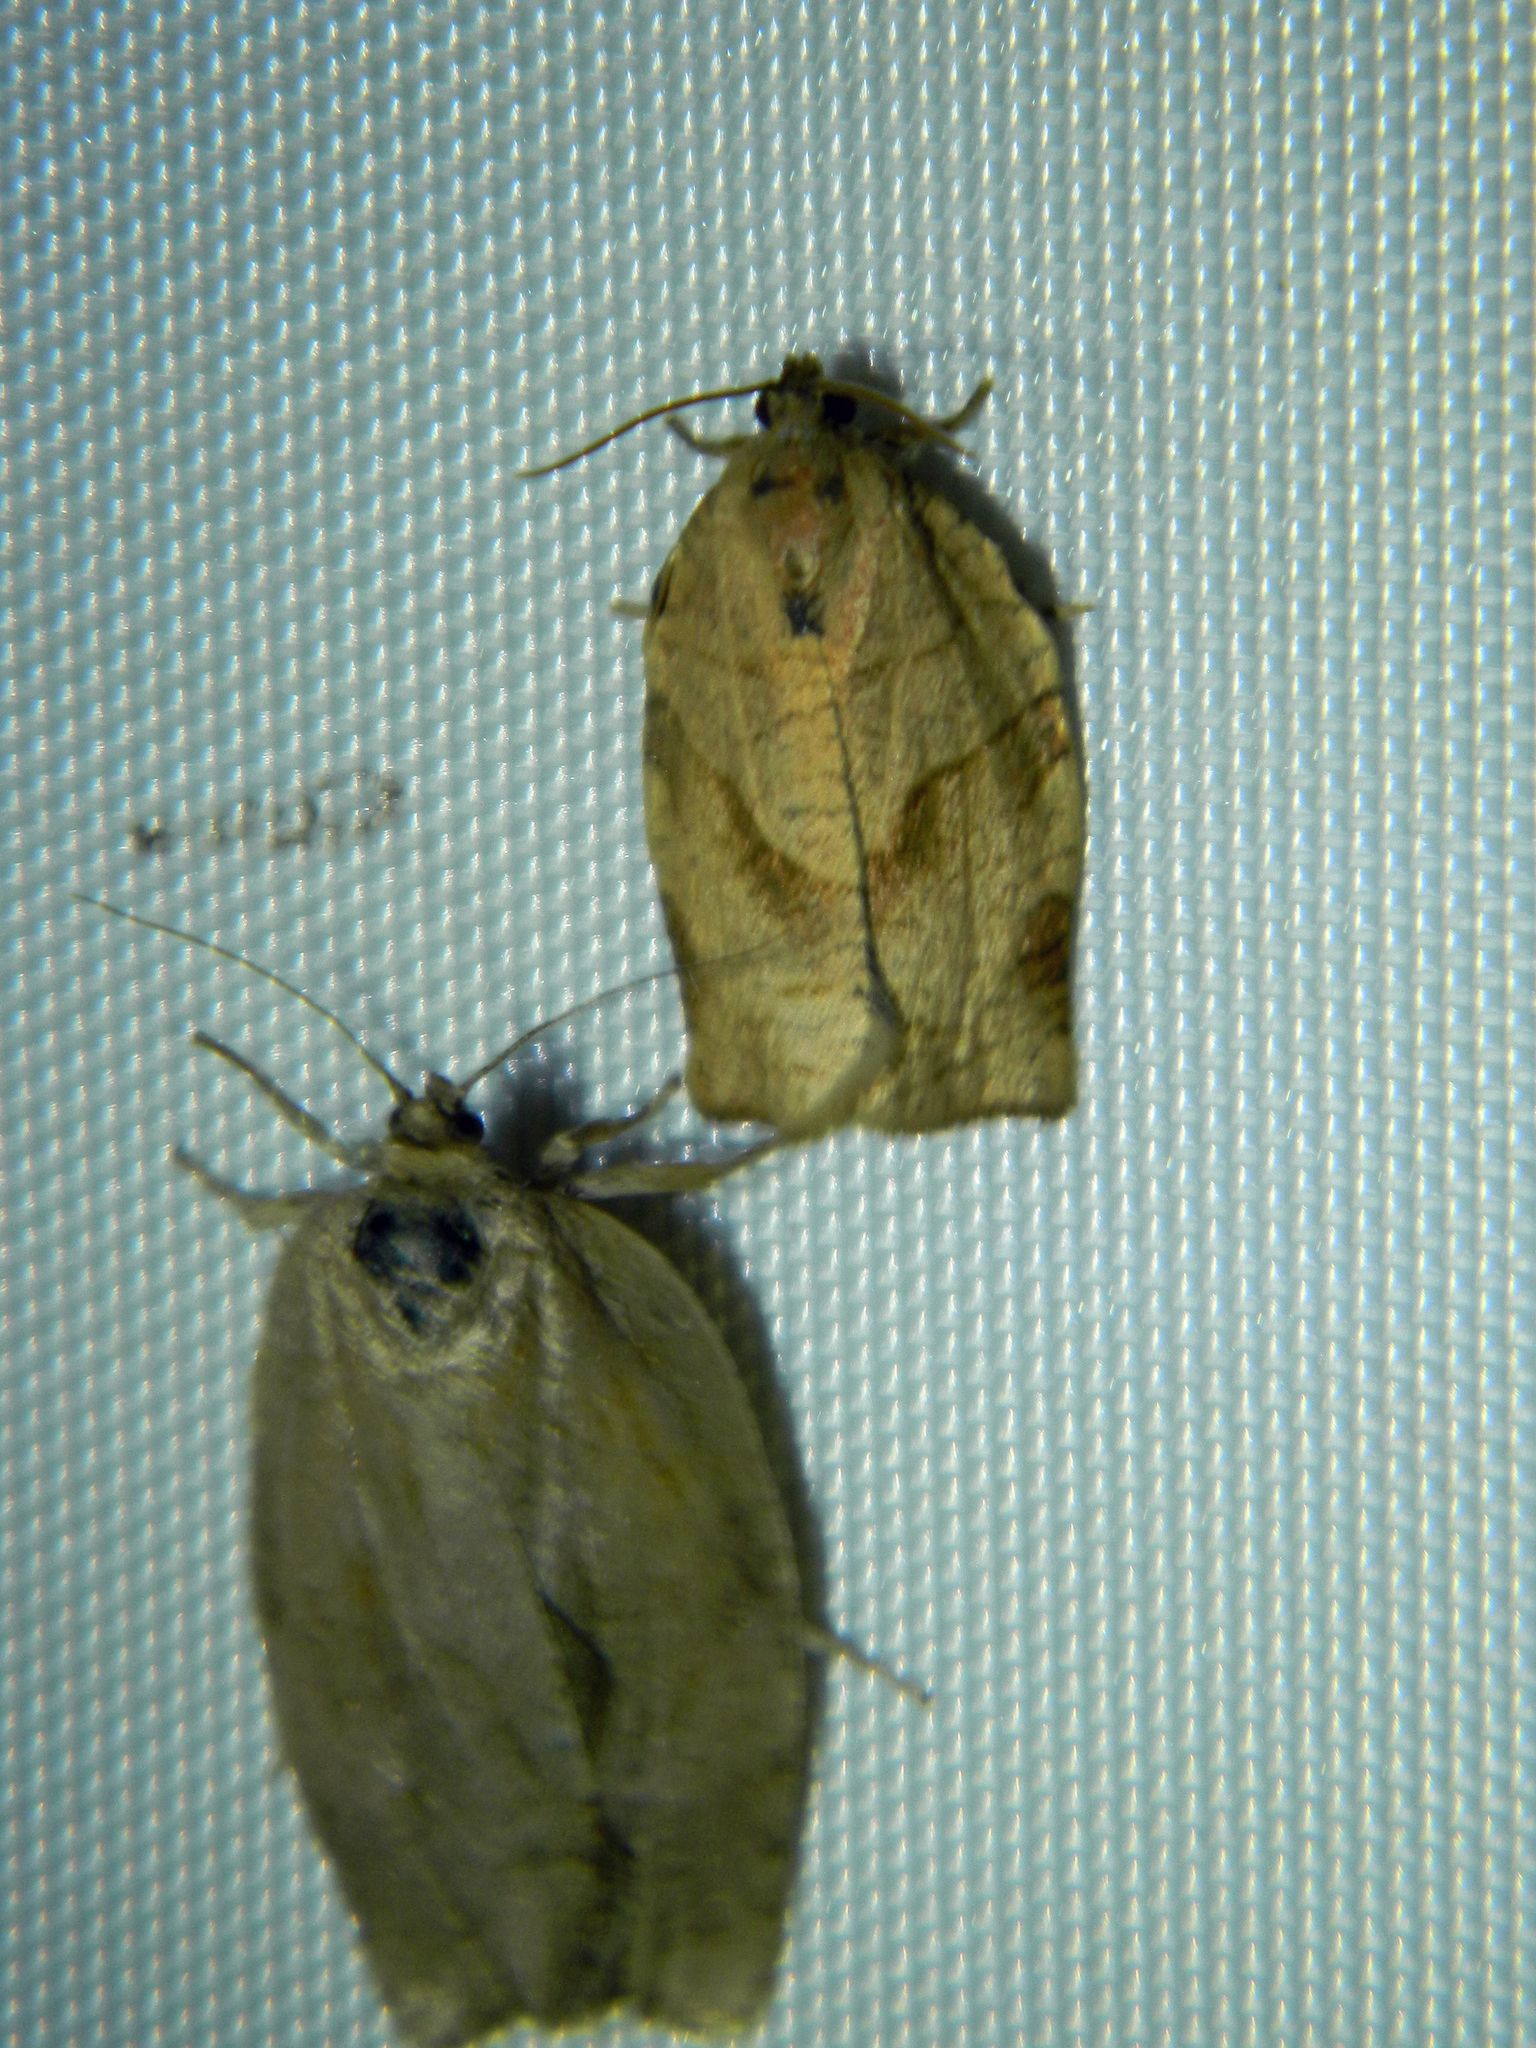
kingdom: Animalia
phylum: Arthropoda
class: Insecta
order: Lepidoptera
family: Tortricidae
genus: Choristoneura
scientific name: Choristoneura rosaceana
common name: Oblique-banded leafroller moth
